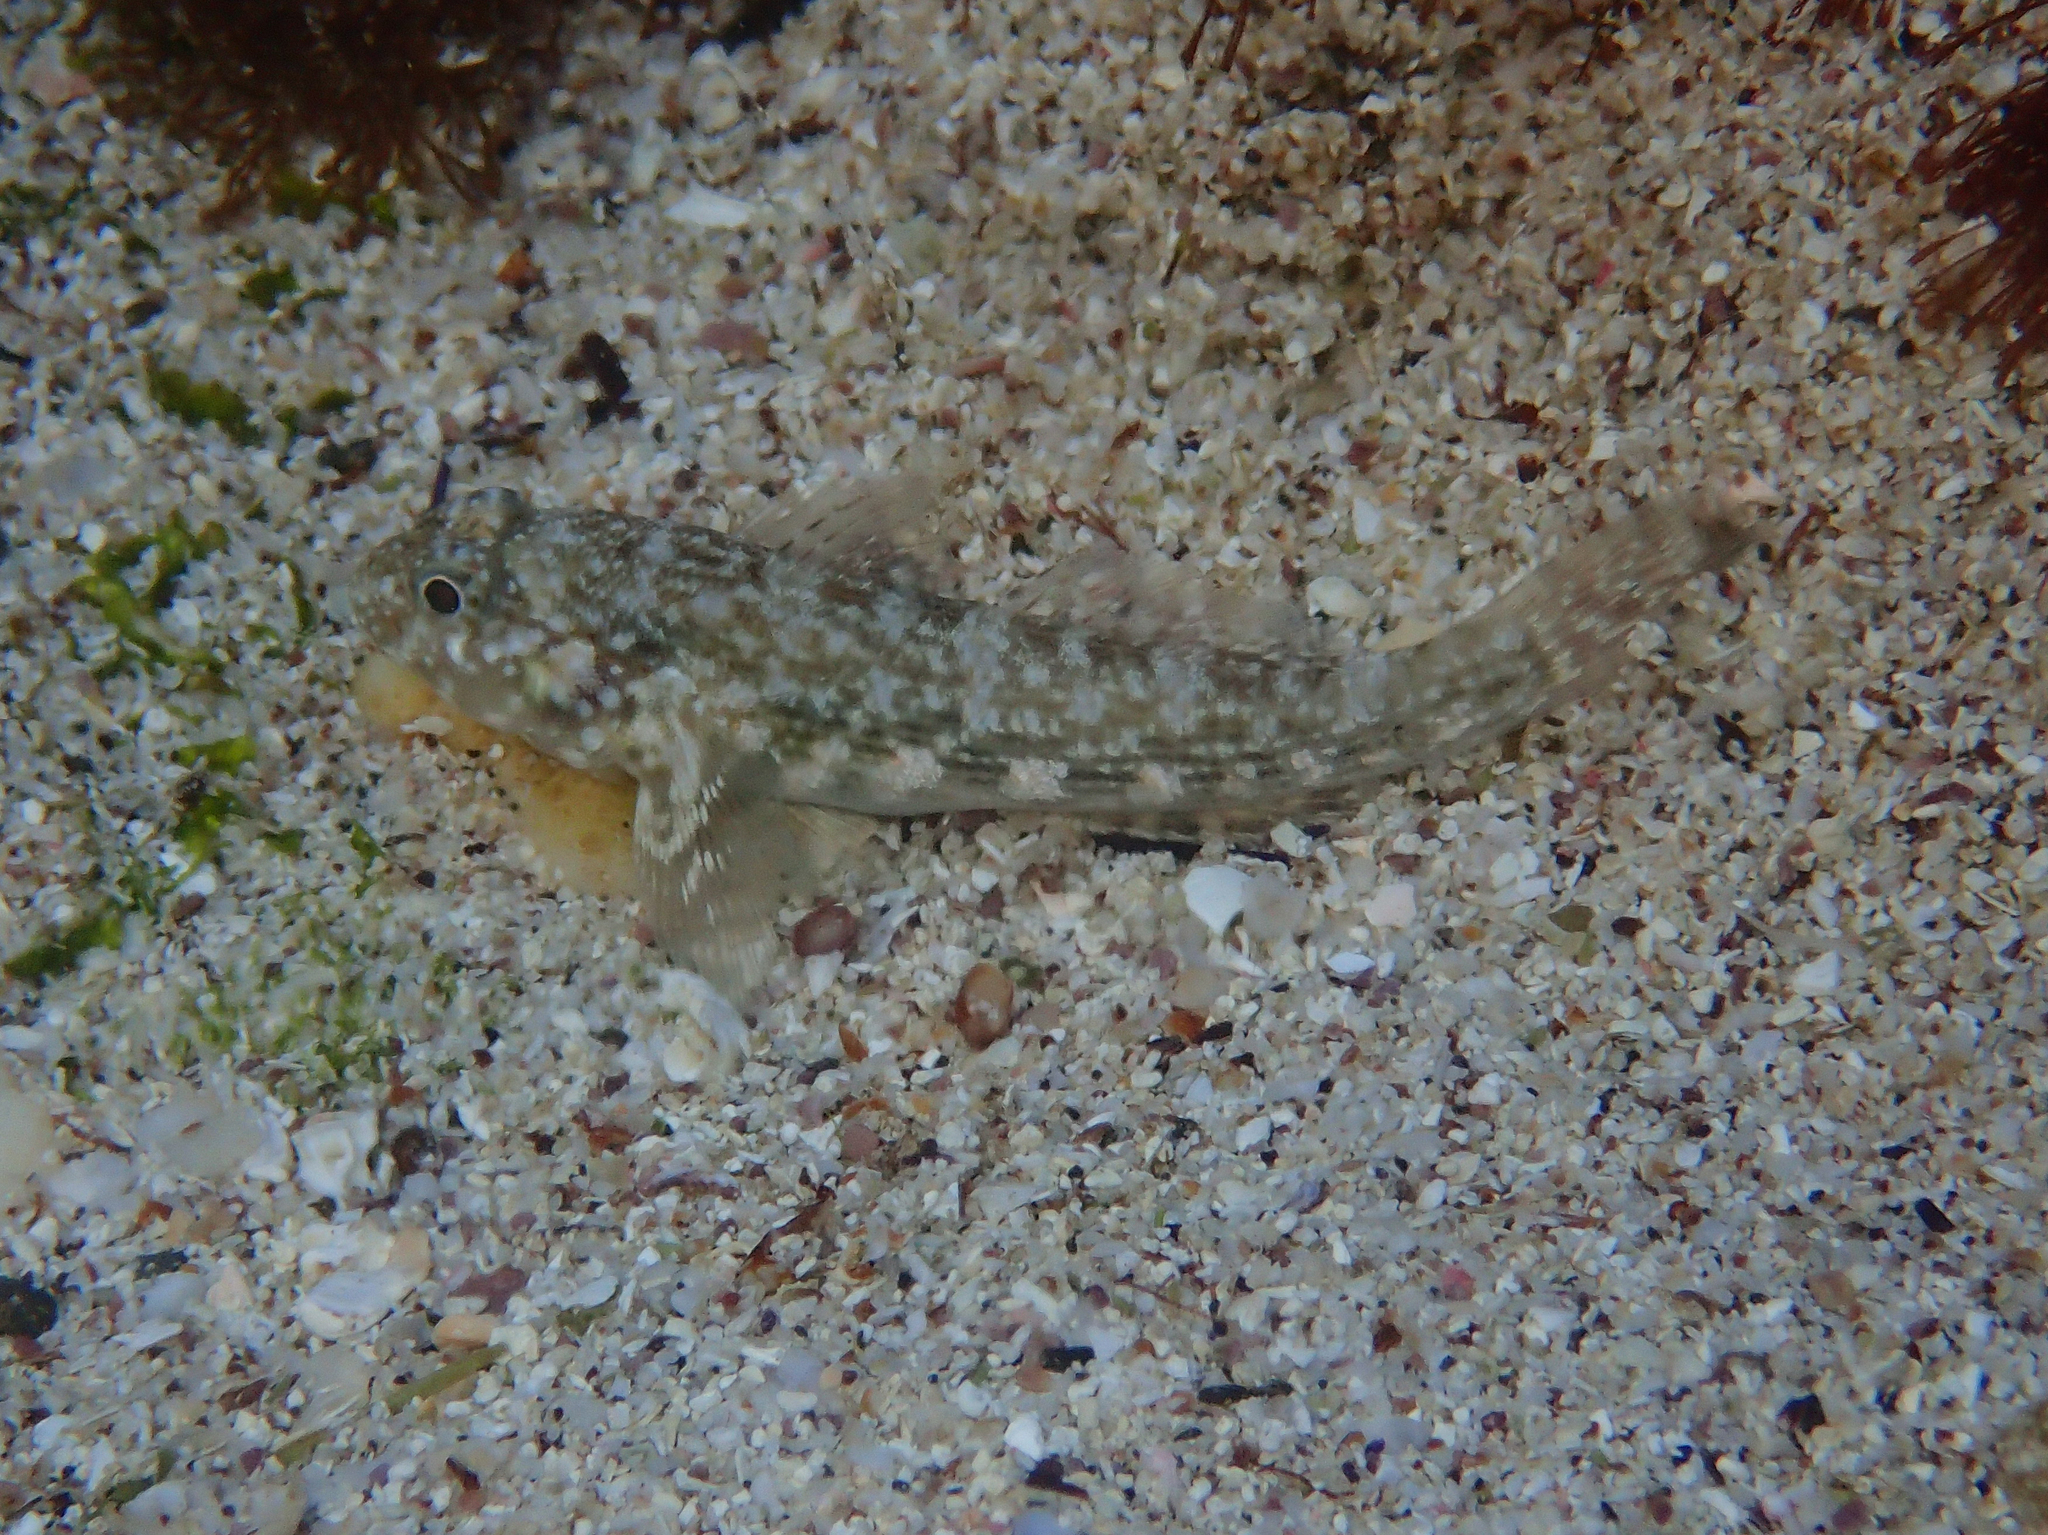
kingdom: Animalia
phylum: Chordata
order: Perciformes
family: Gobiidae
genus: Bathygobius
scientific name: Bathygobius lineatus
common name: Southern frillfin
